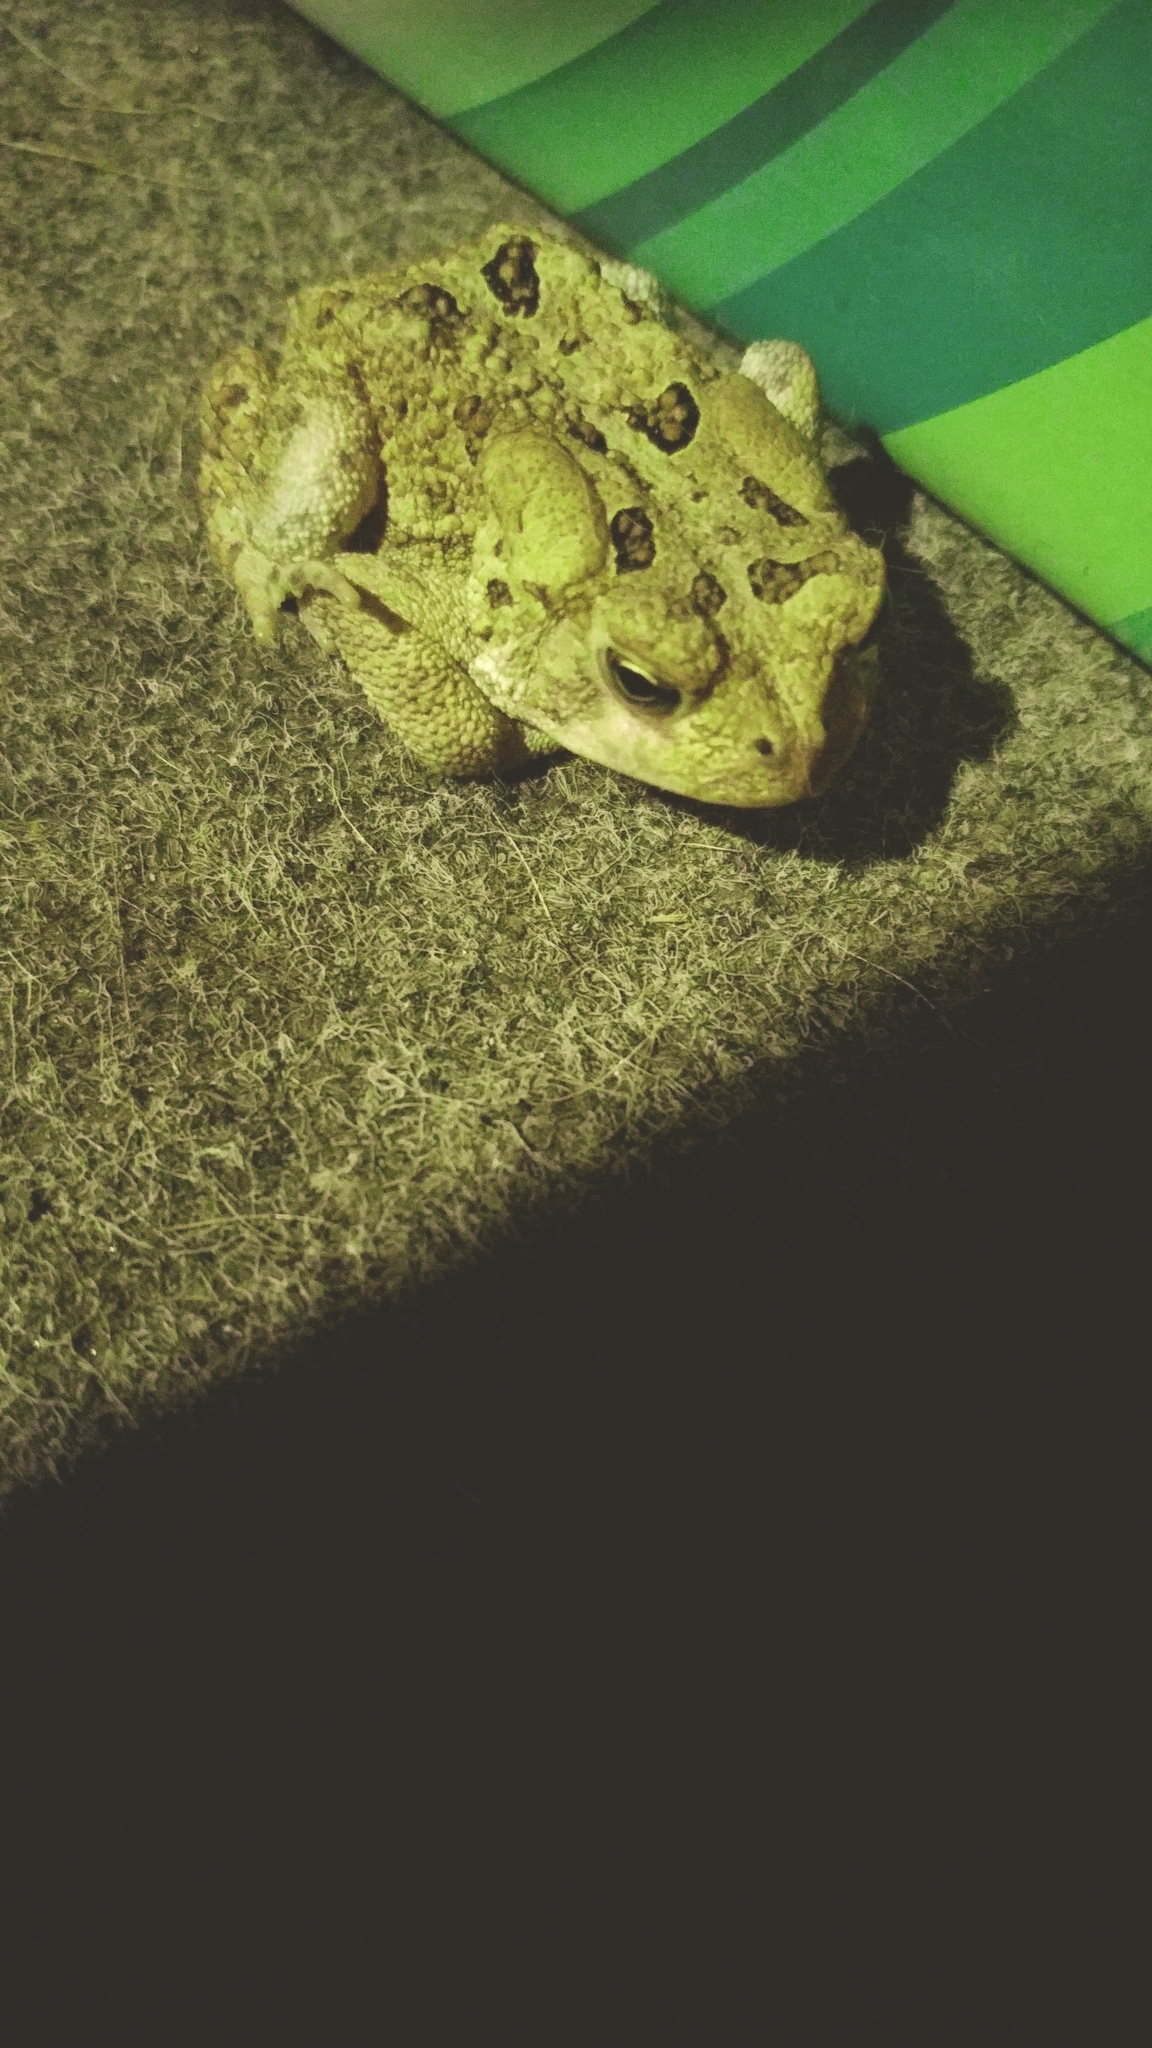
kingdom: Animalia
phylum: Chordata
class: Amphibia
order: Anura
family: Bufonidae
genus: Anaxyrus
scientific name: Anaxyrus fowleri
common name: Fowler's toad
